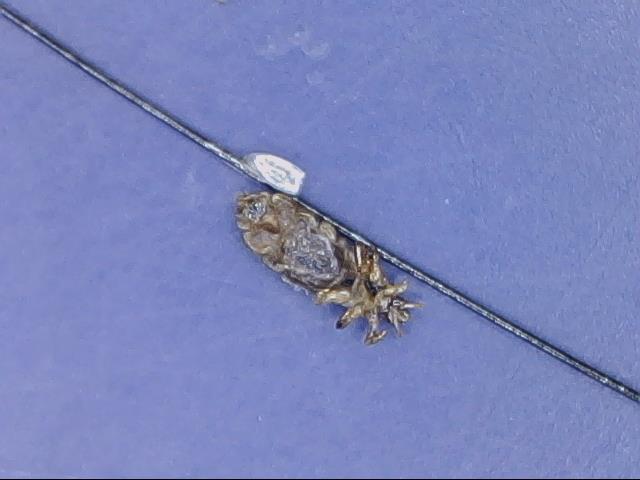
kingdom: Animalia
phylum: Arthropoda
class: Insecta
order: Psocodea
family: Pediculidae
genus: Pediculus
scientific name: Pediculus humanus
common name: Body louse
